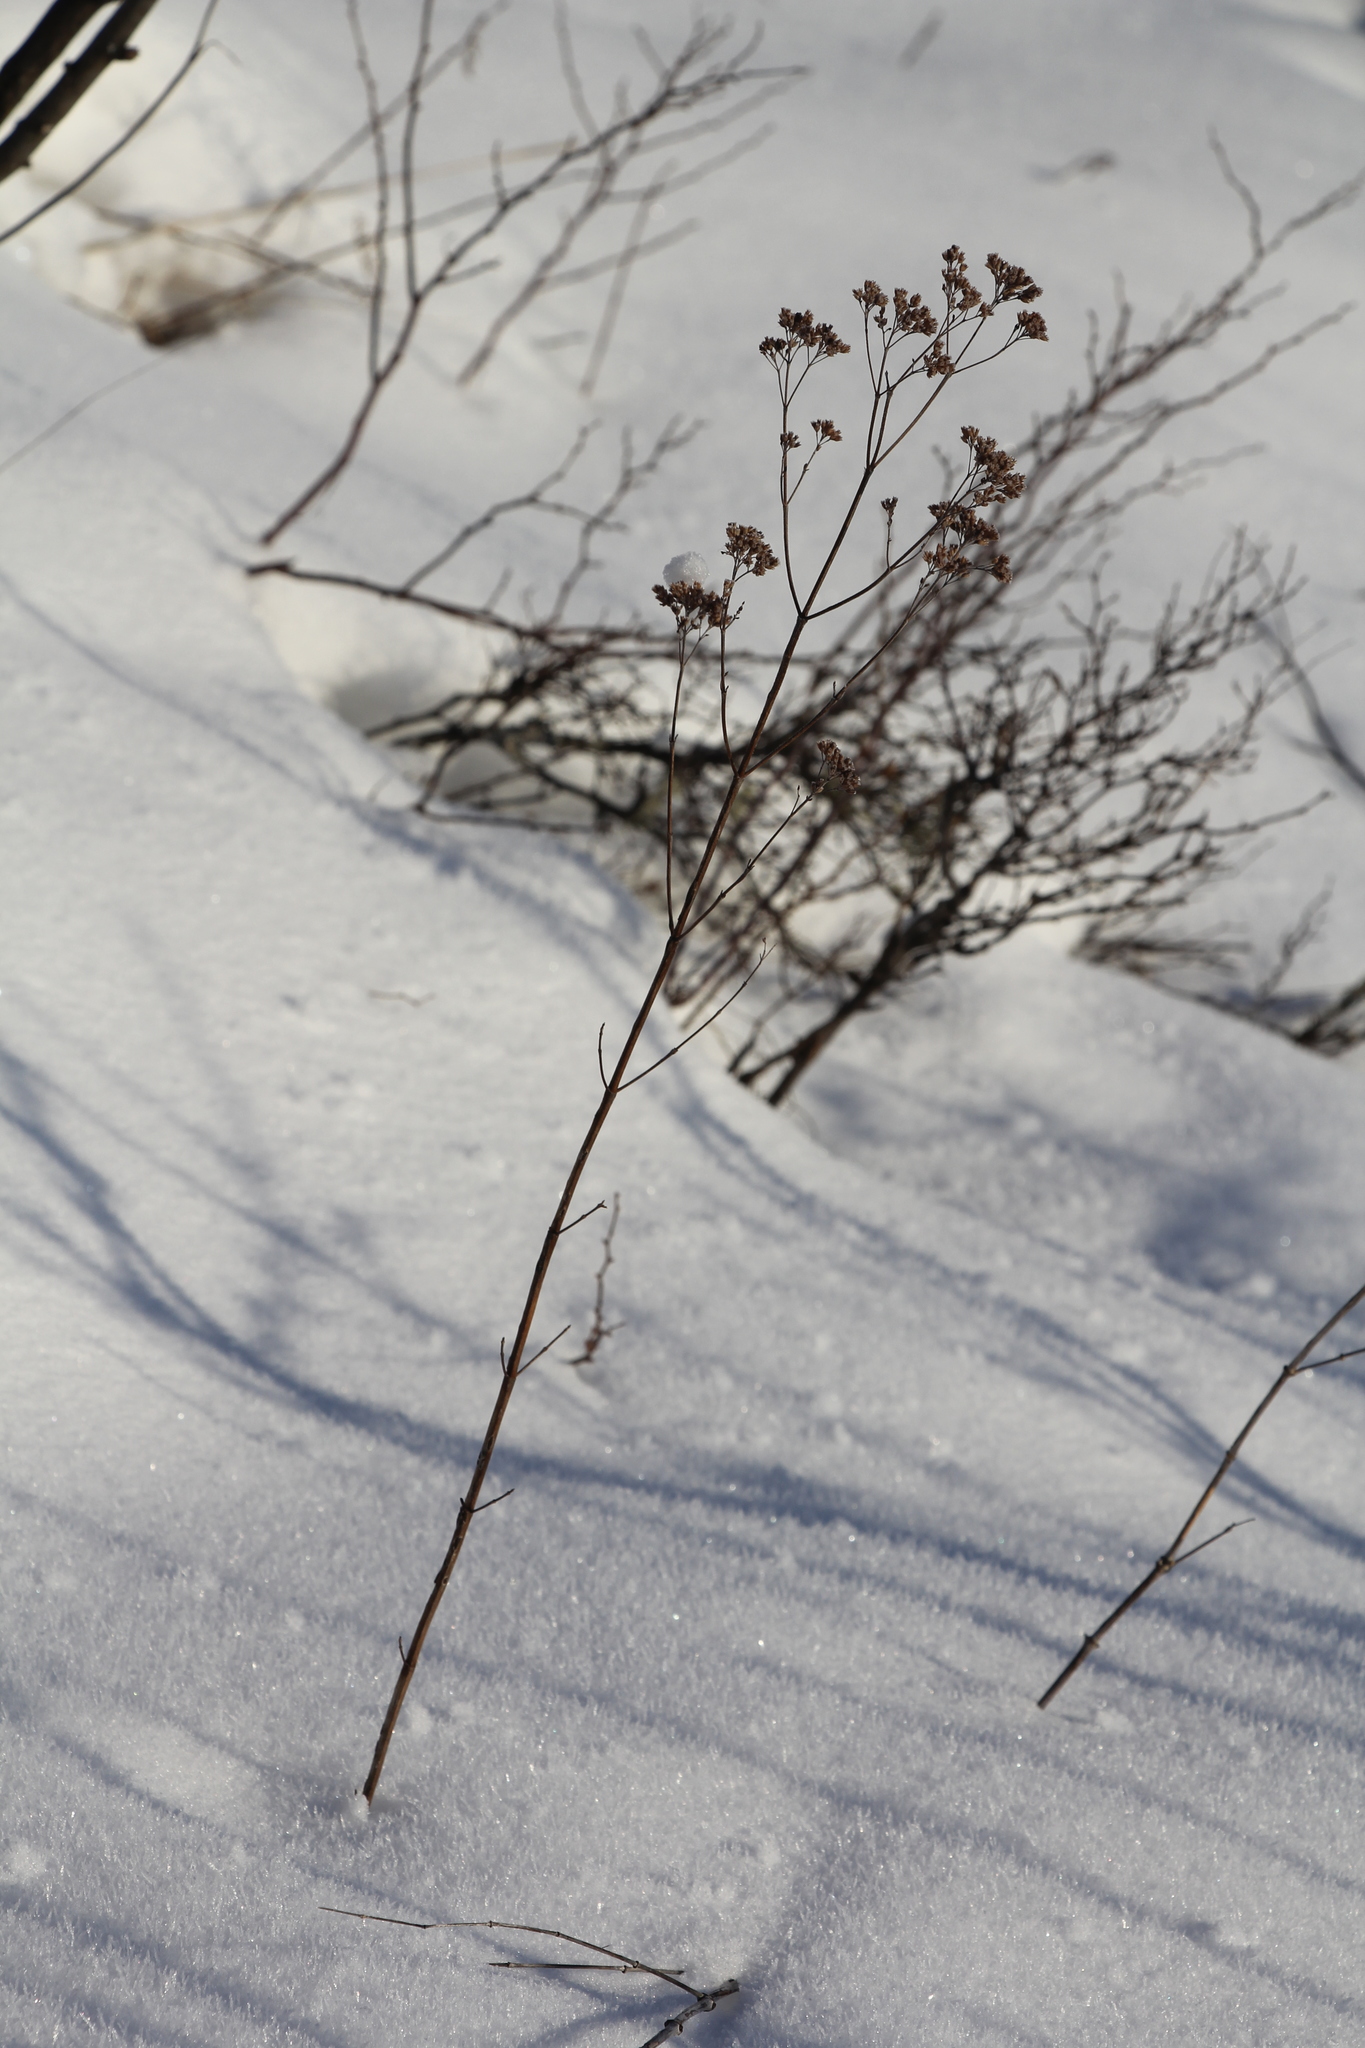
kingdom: Plantae
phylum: Tracheophyta
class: Magnoliopsida
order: Lamiales
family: Lamiaceae
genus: Origanum
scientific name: Origanum vulgare
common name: Wild marjoram
